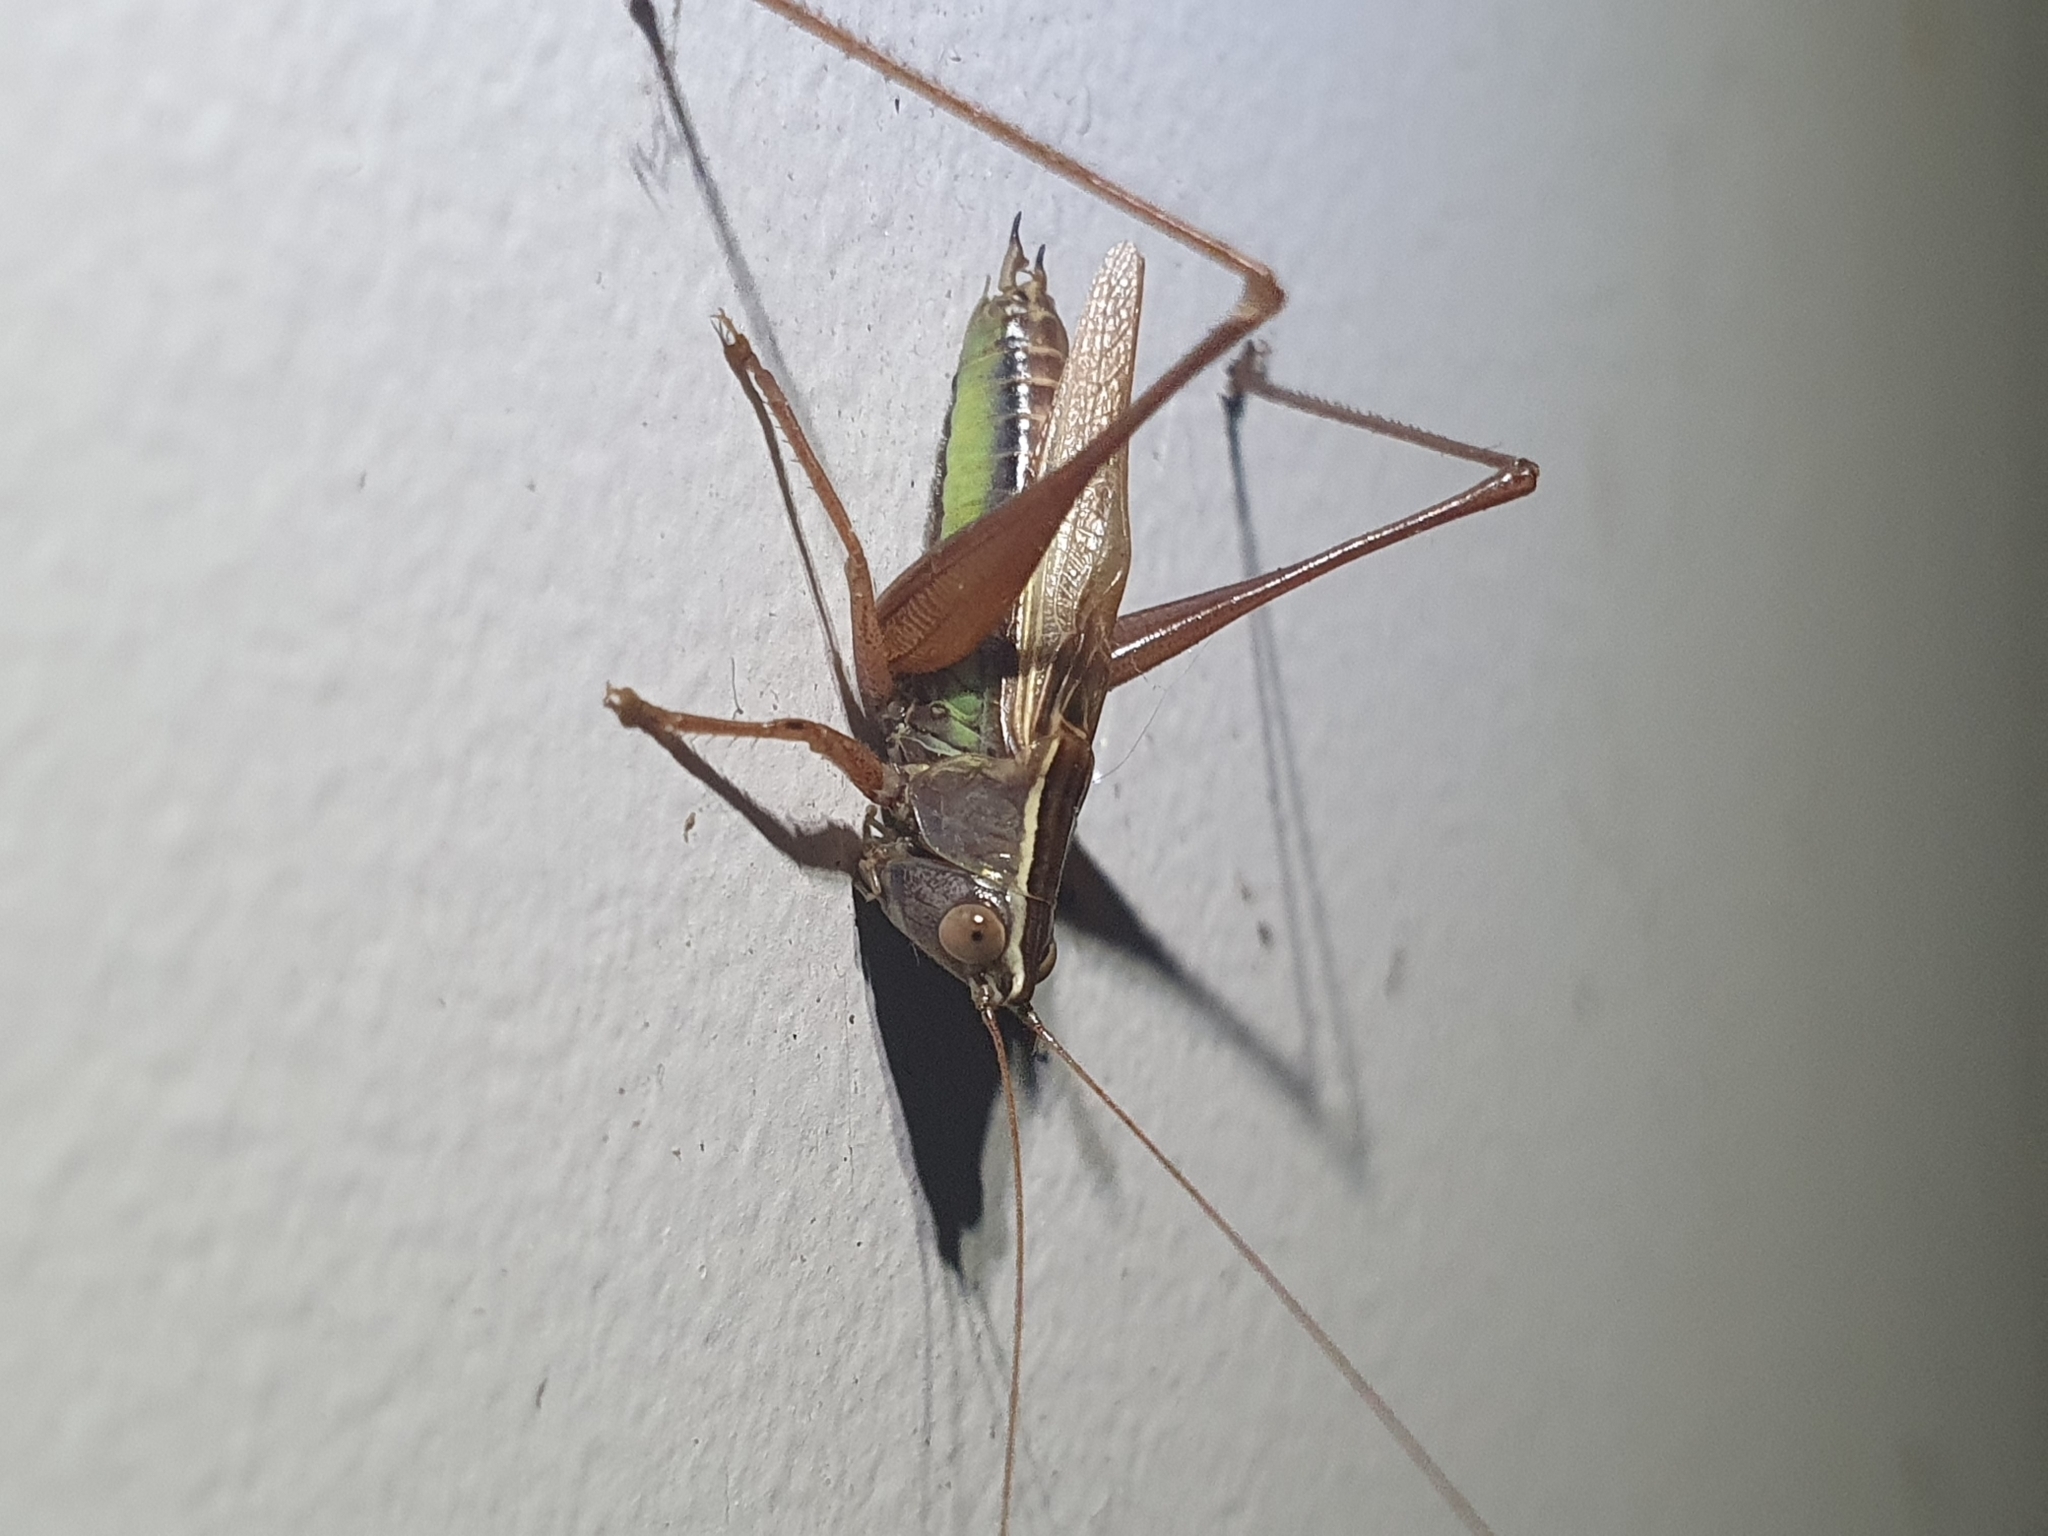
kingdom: Animalia
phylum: Arthropoda
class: Insecta
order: Orthoptera
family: Tettigoniidae
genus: Conocephalus
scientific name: Conocephalus albescens
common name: Whitish meadow katydid
